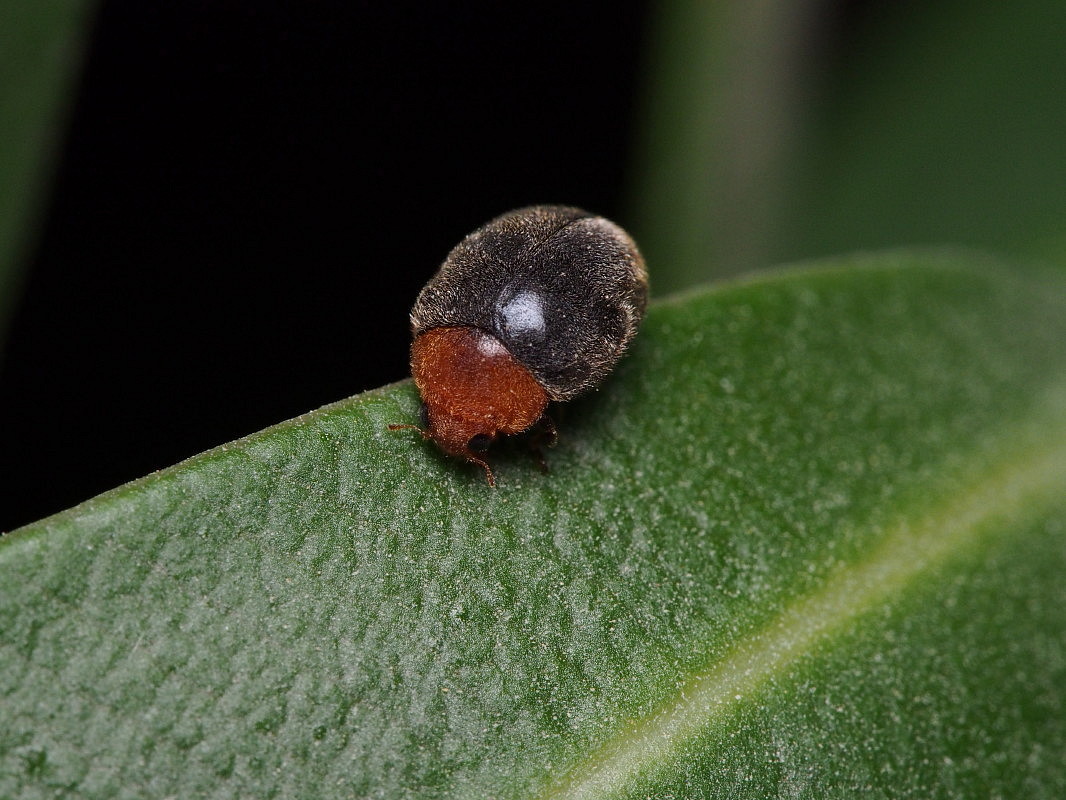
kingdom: Animalia
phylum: Arthropoda
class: Insecta
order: Coleoptera
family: Coccinellidae
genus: Cryptolaemus
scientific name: Cryptolaemus montrouzieri
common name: Mealybug destroyer
